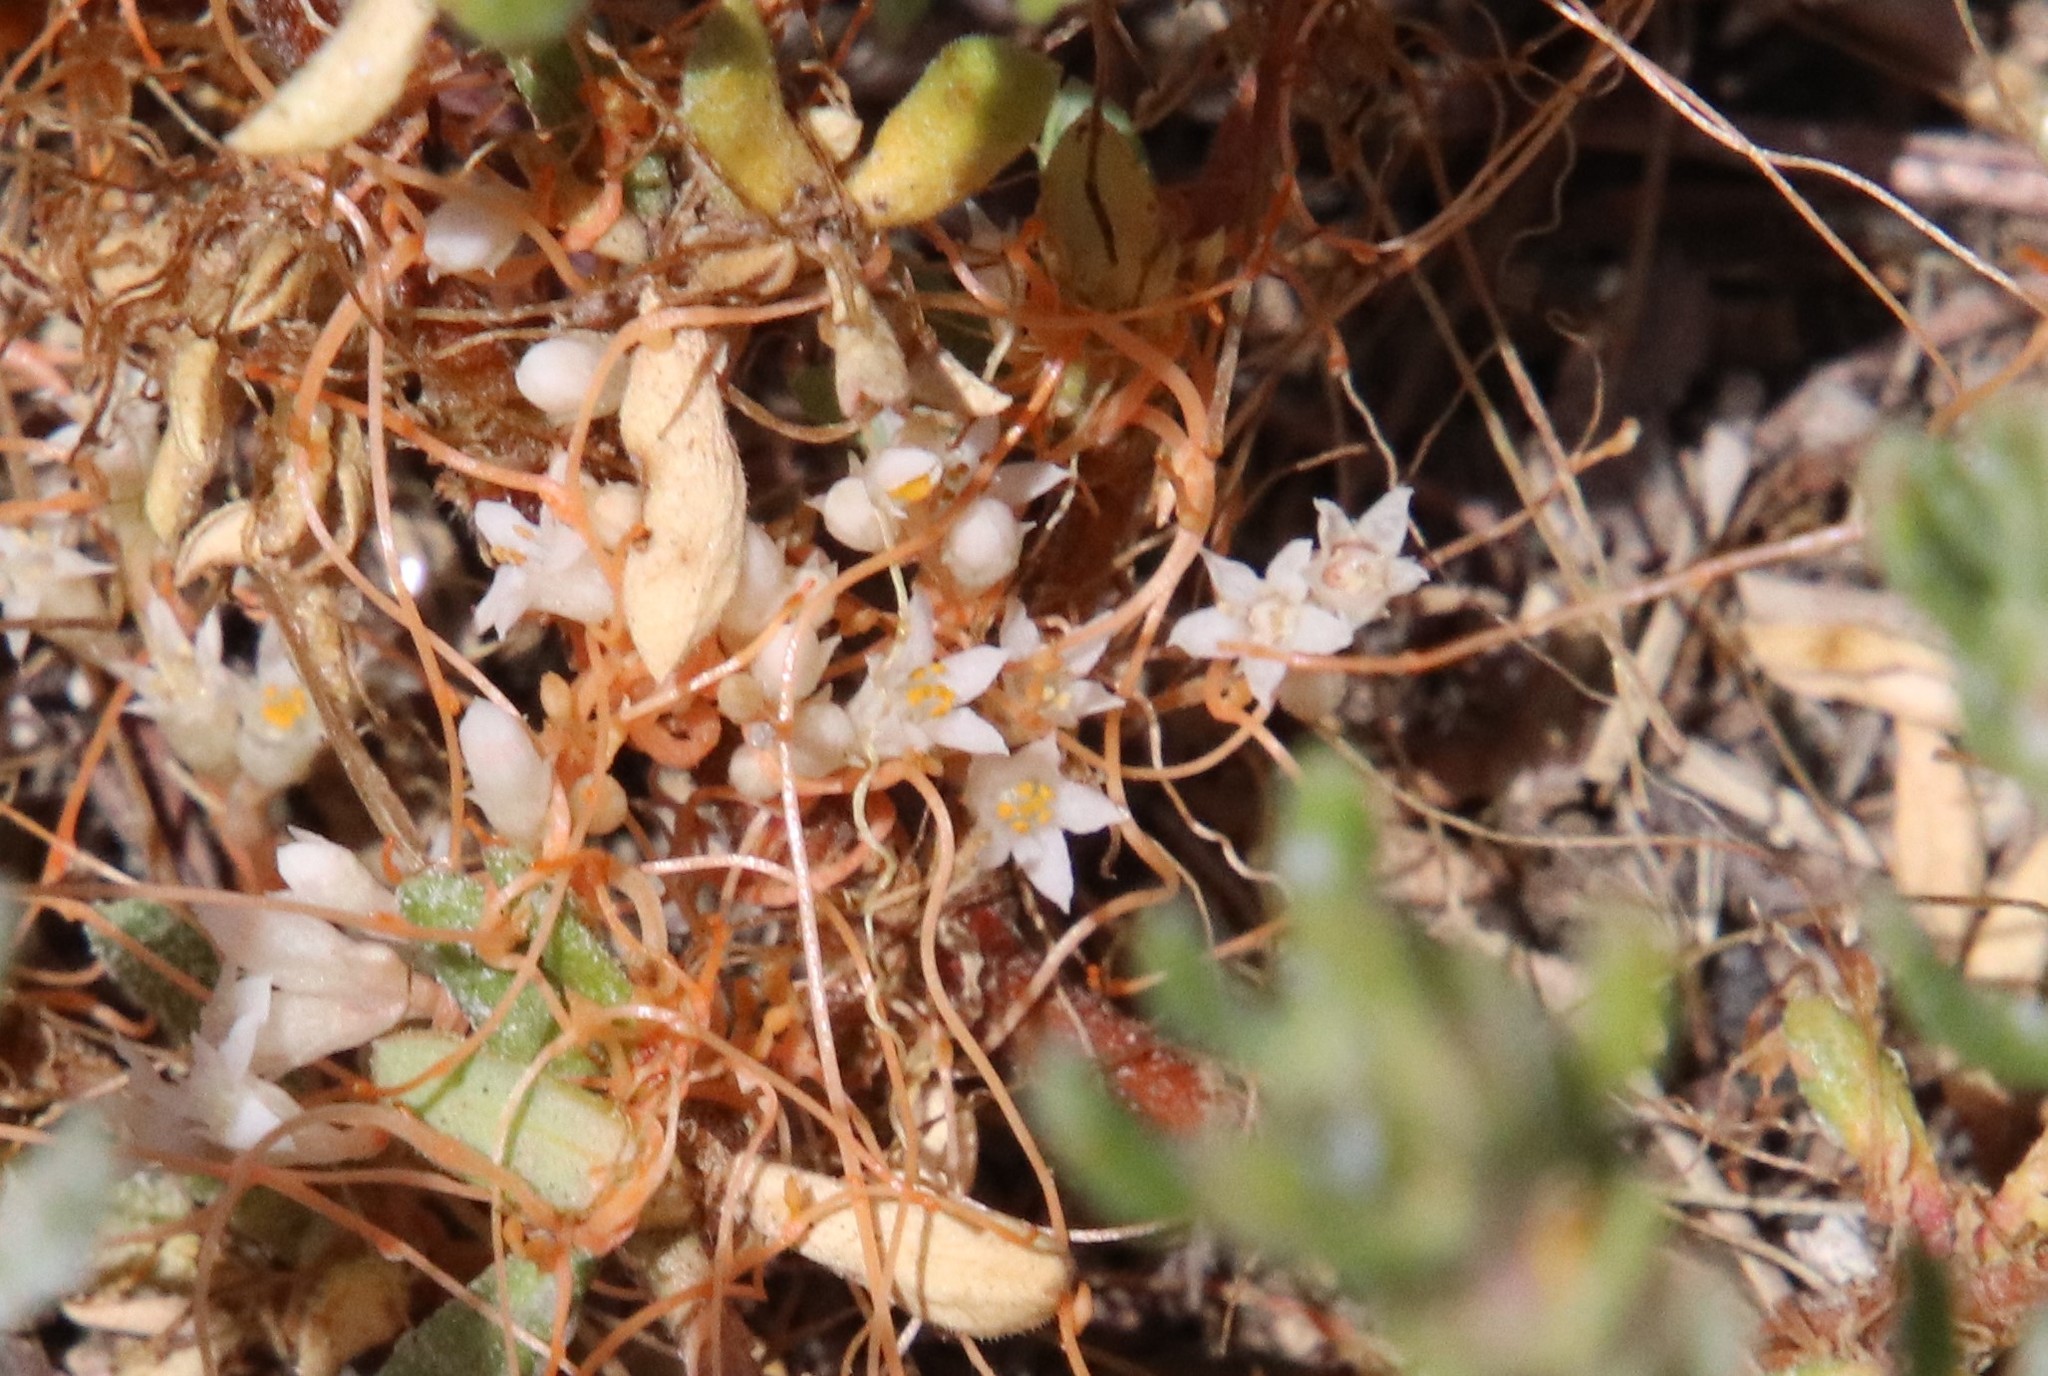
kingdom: Plantae
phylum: Tracheophyta
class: Magnoliopsida
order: Solanales
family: Convolvulaceae
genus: Cuscuta
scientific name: Cuscuta pacifica
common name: Large saltmarsh dodder
